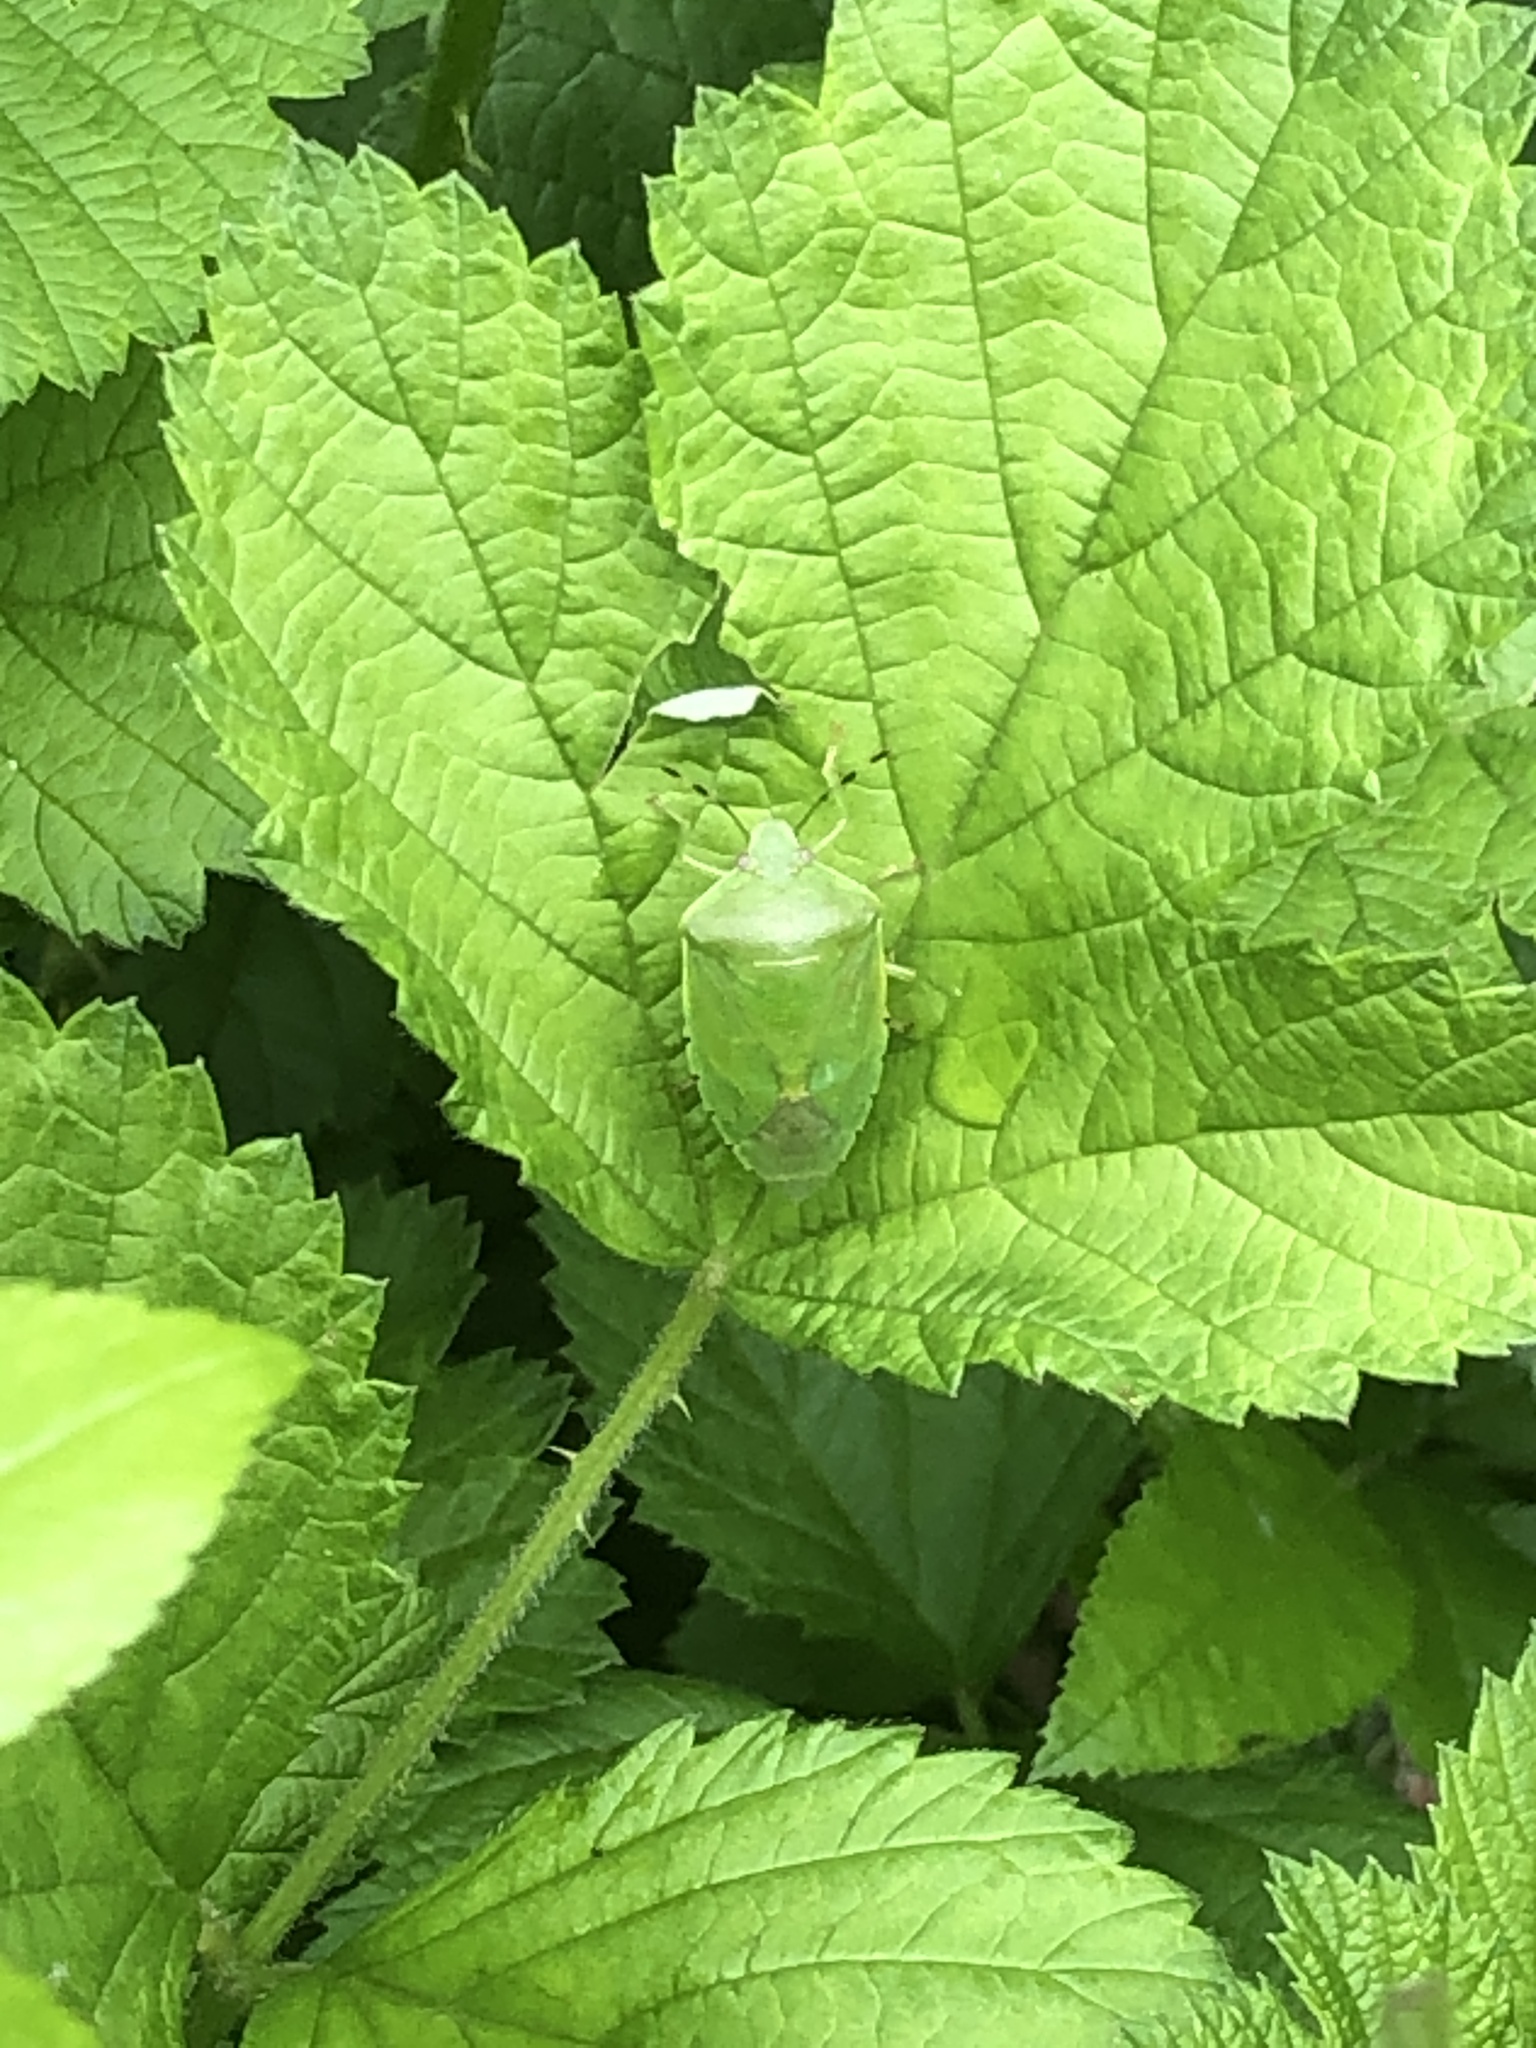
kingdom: Animalia
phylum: Arthropoda
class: Insecta
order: Hemiptera
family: Pentatomidae
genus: Chinavia
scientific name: Chinavia hilaris
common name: Green stink bug
